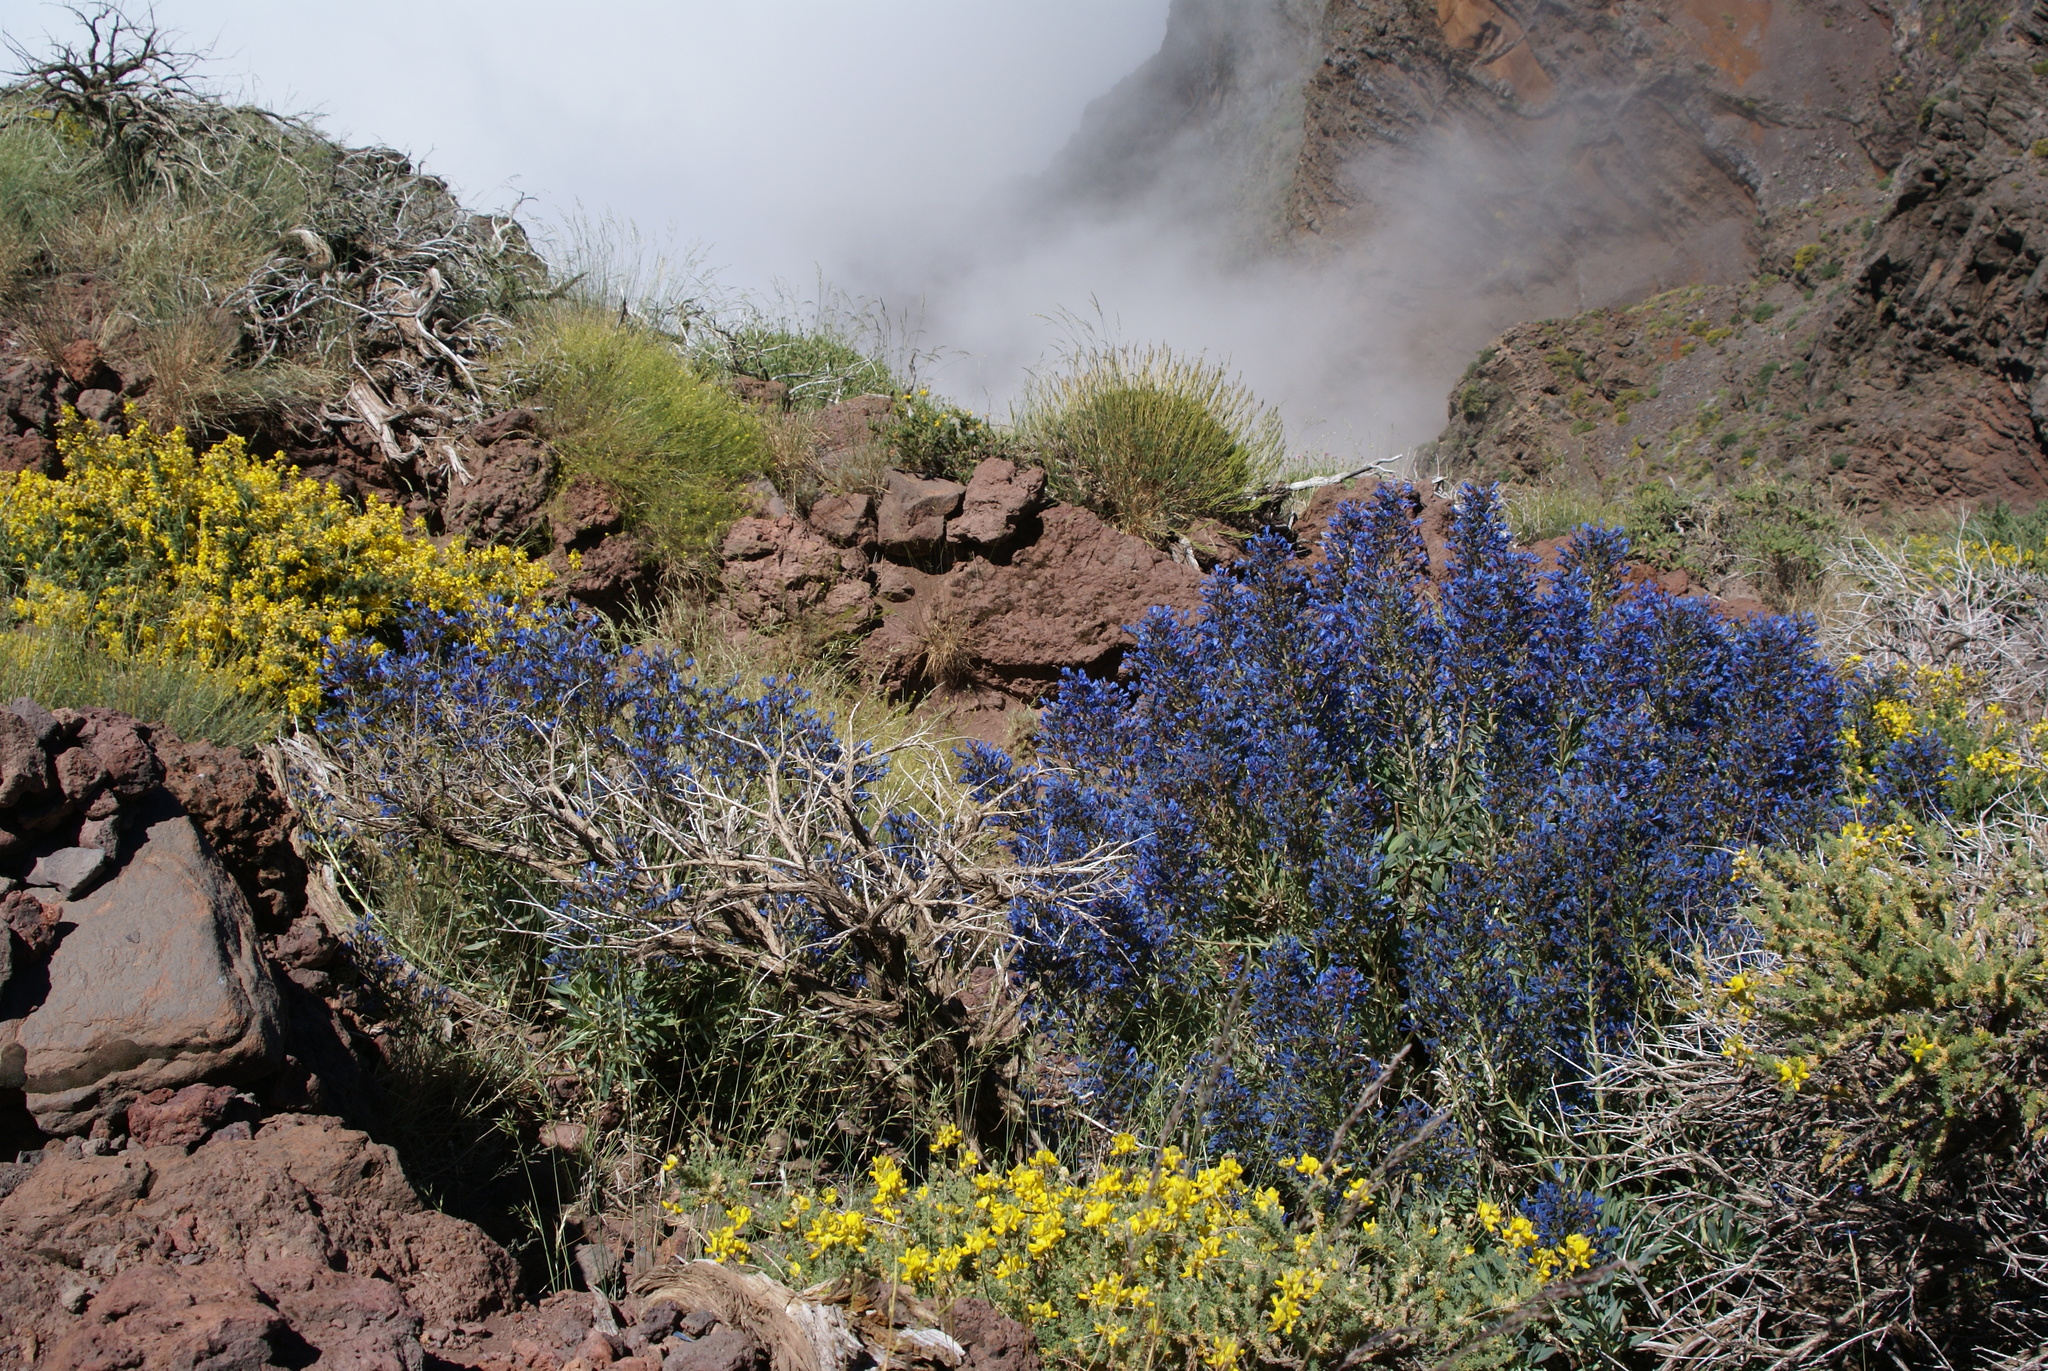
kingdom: Plantae
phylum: Tracheophyta
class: Magnoliopsida
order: Boraginales
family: Boraginaceae
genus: Echium
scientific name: Echium thyrsiflorum
